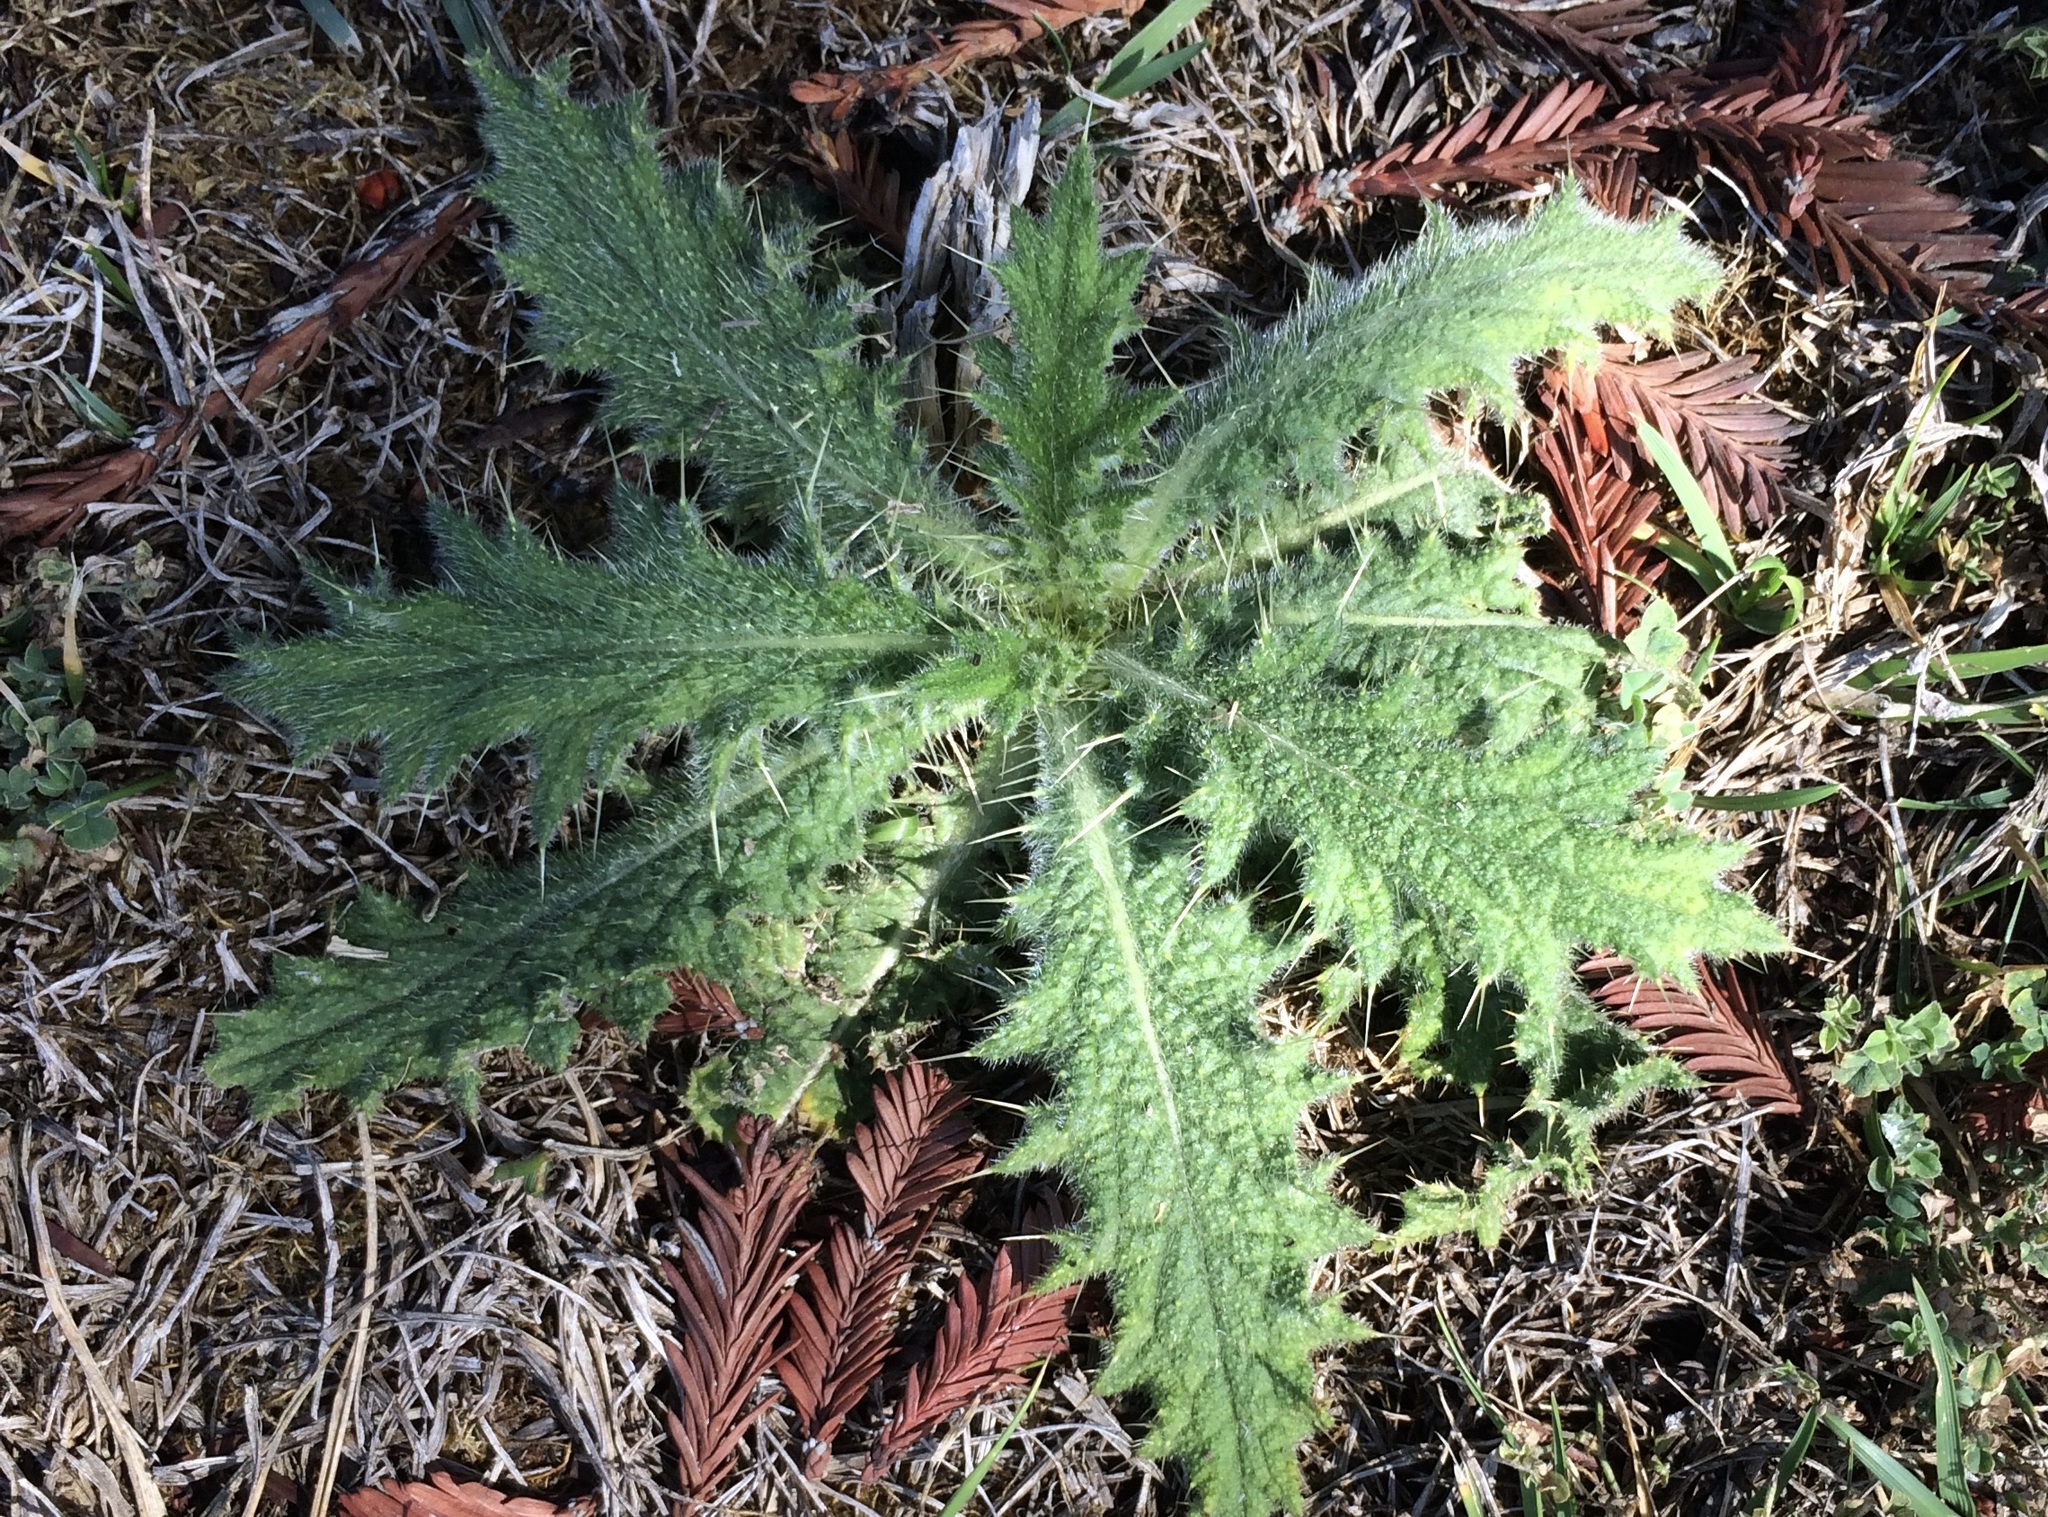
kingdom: Plantae
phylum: Tracheophyta
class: Magnoliopsida
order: Asterales
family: Asteraceae
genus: Cirsium
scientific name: Cirsium vulgare
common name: Bull thistle
